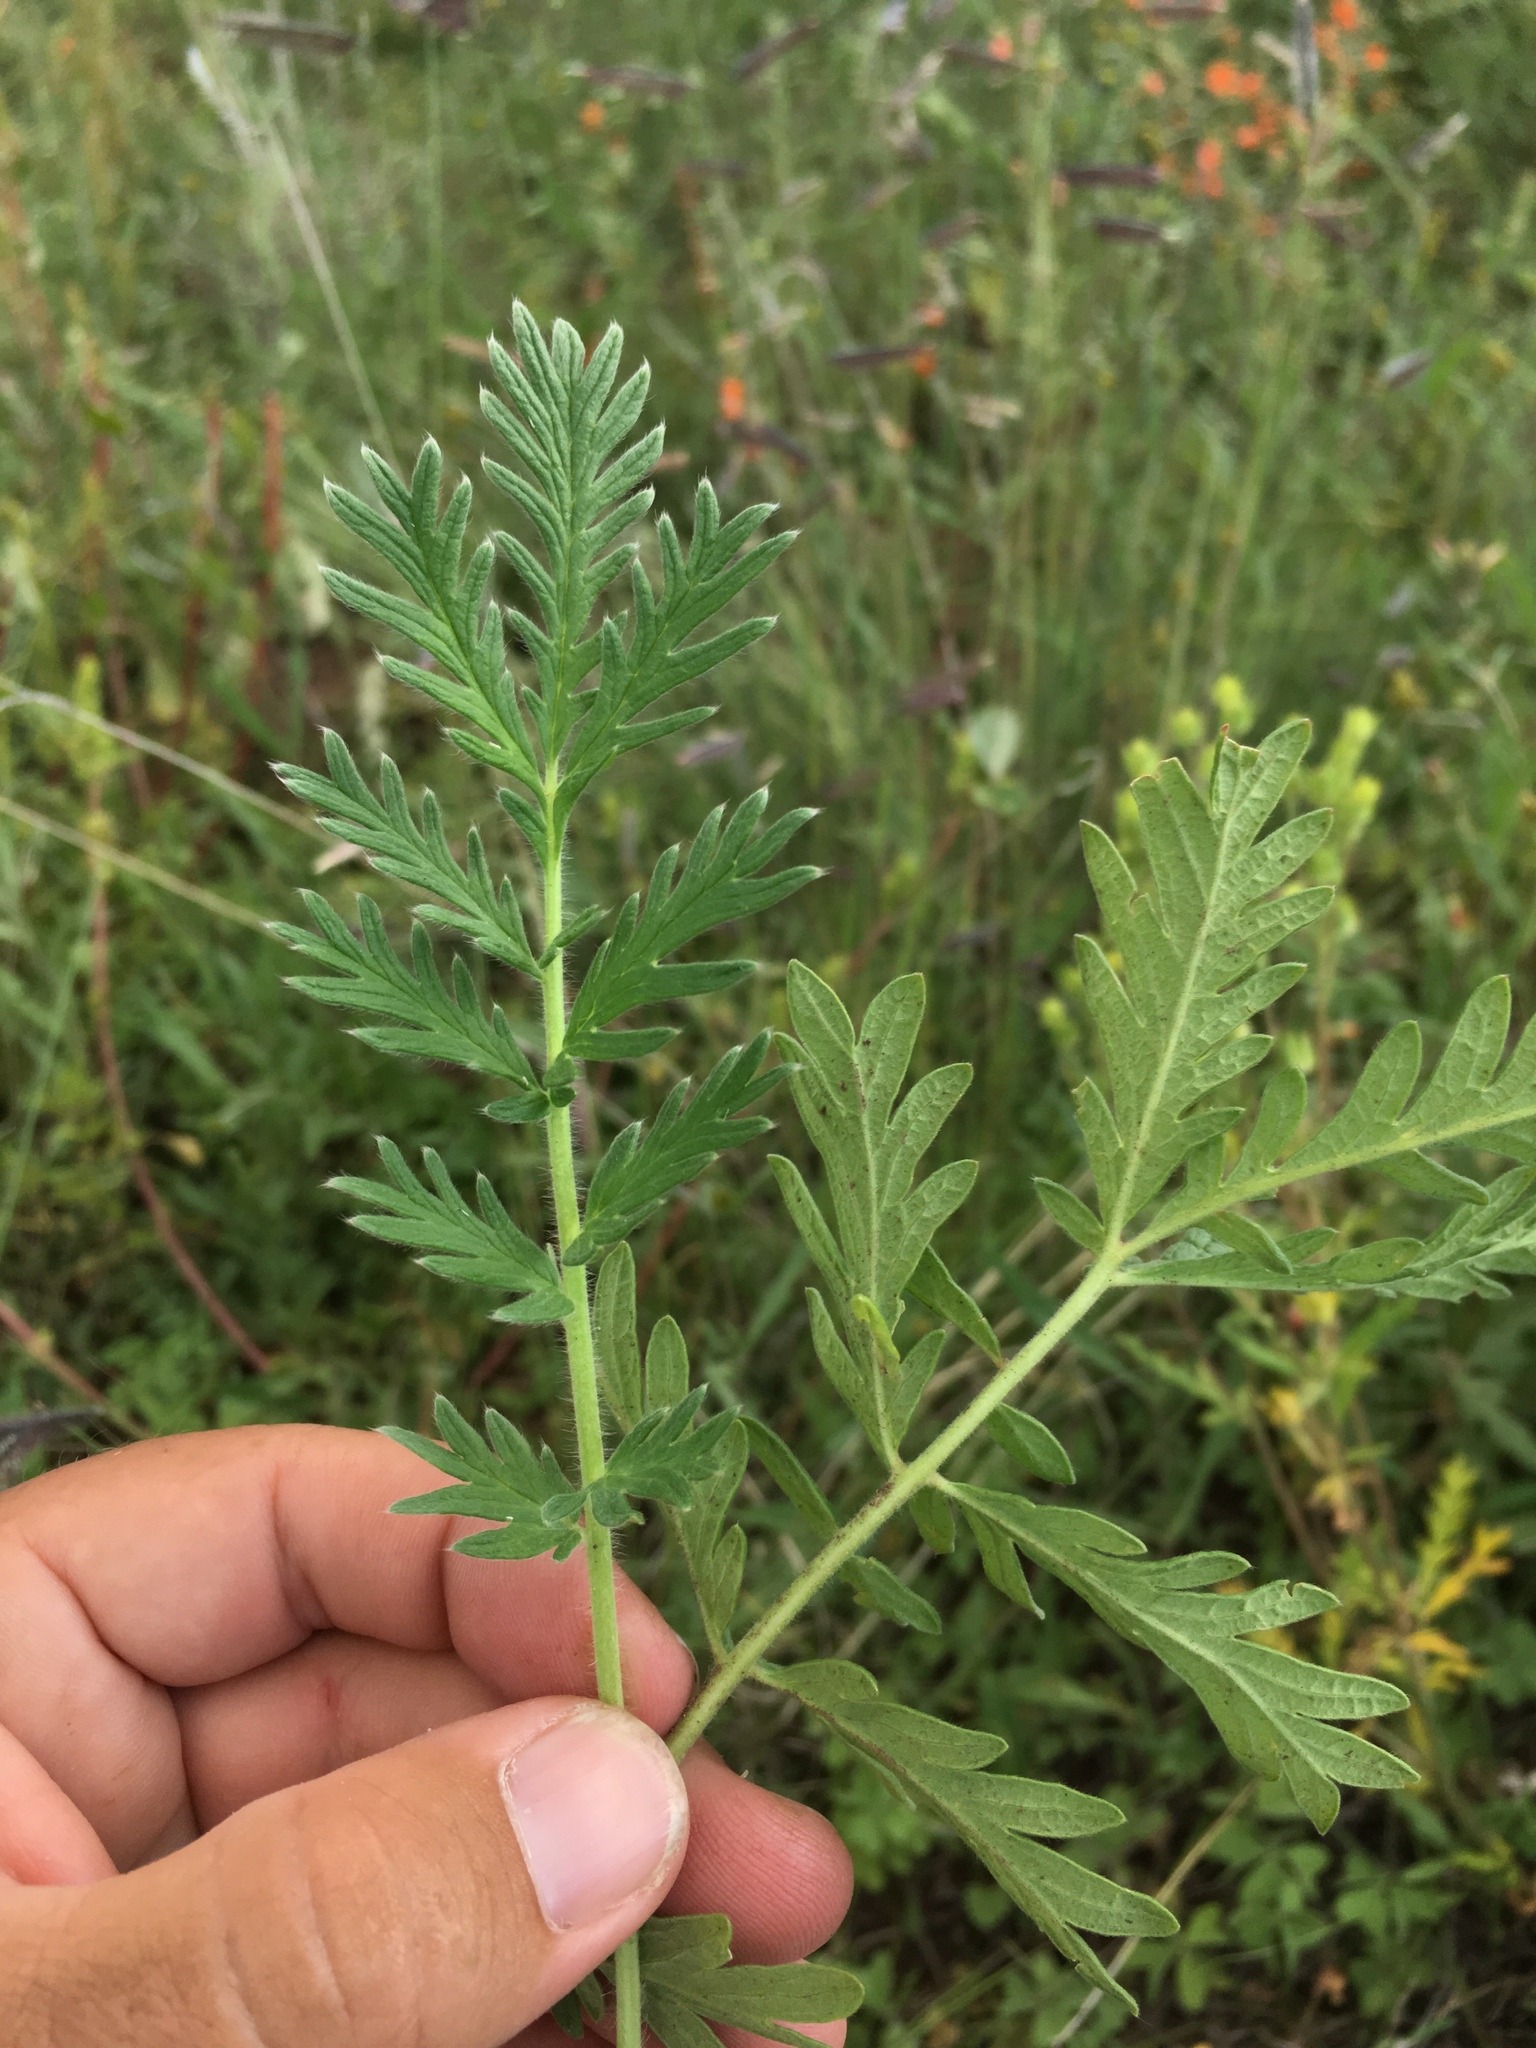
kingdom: Plantae
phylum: Tracheophyta
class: Magnoliopsida
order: Rosales
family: Rosaceae
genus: Potentilla
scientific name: Potentilla pensylvanica
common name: Pennsylvania cinquefoil
